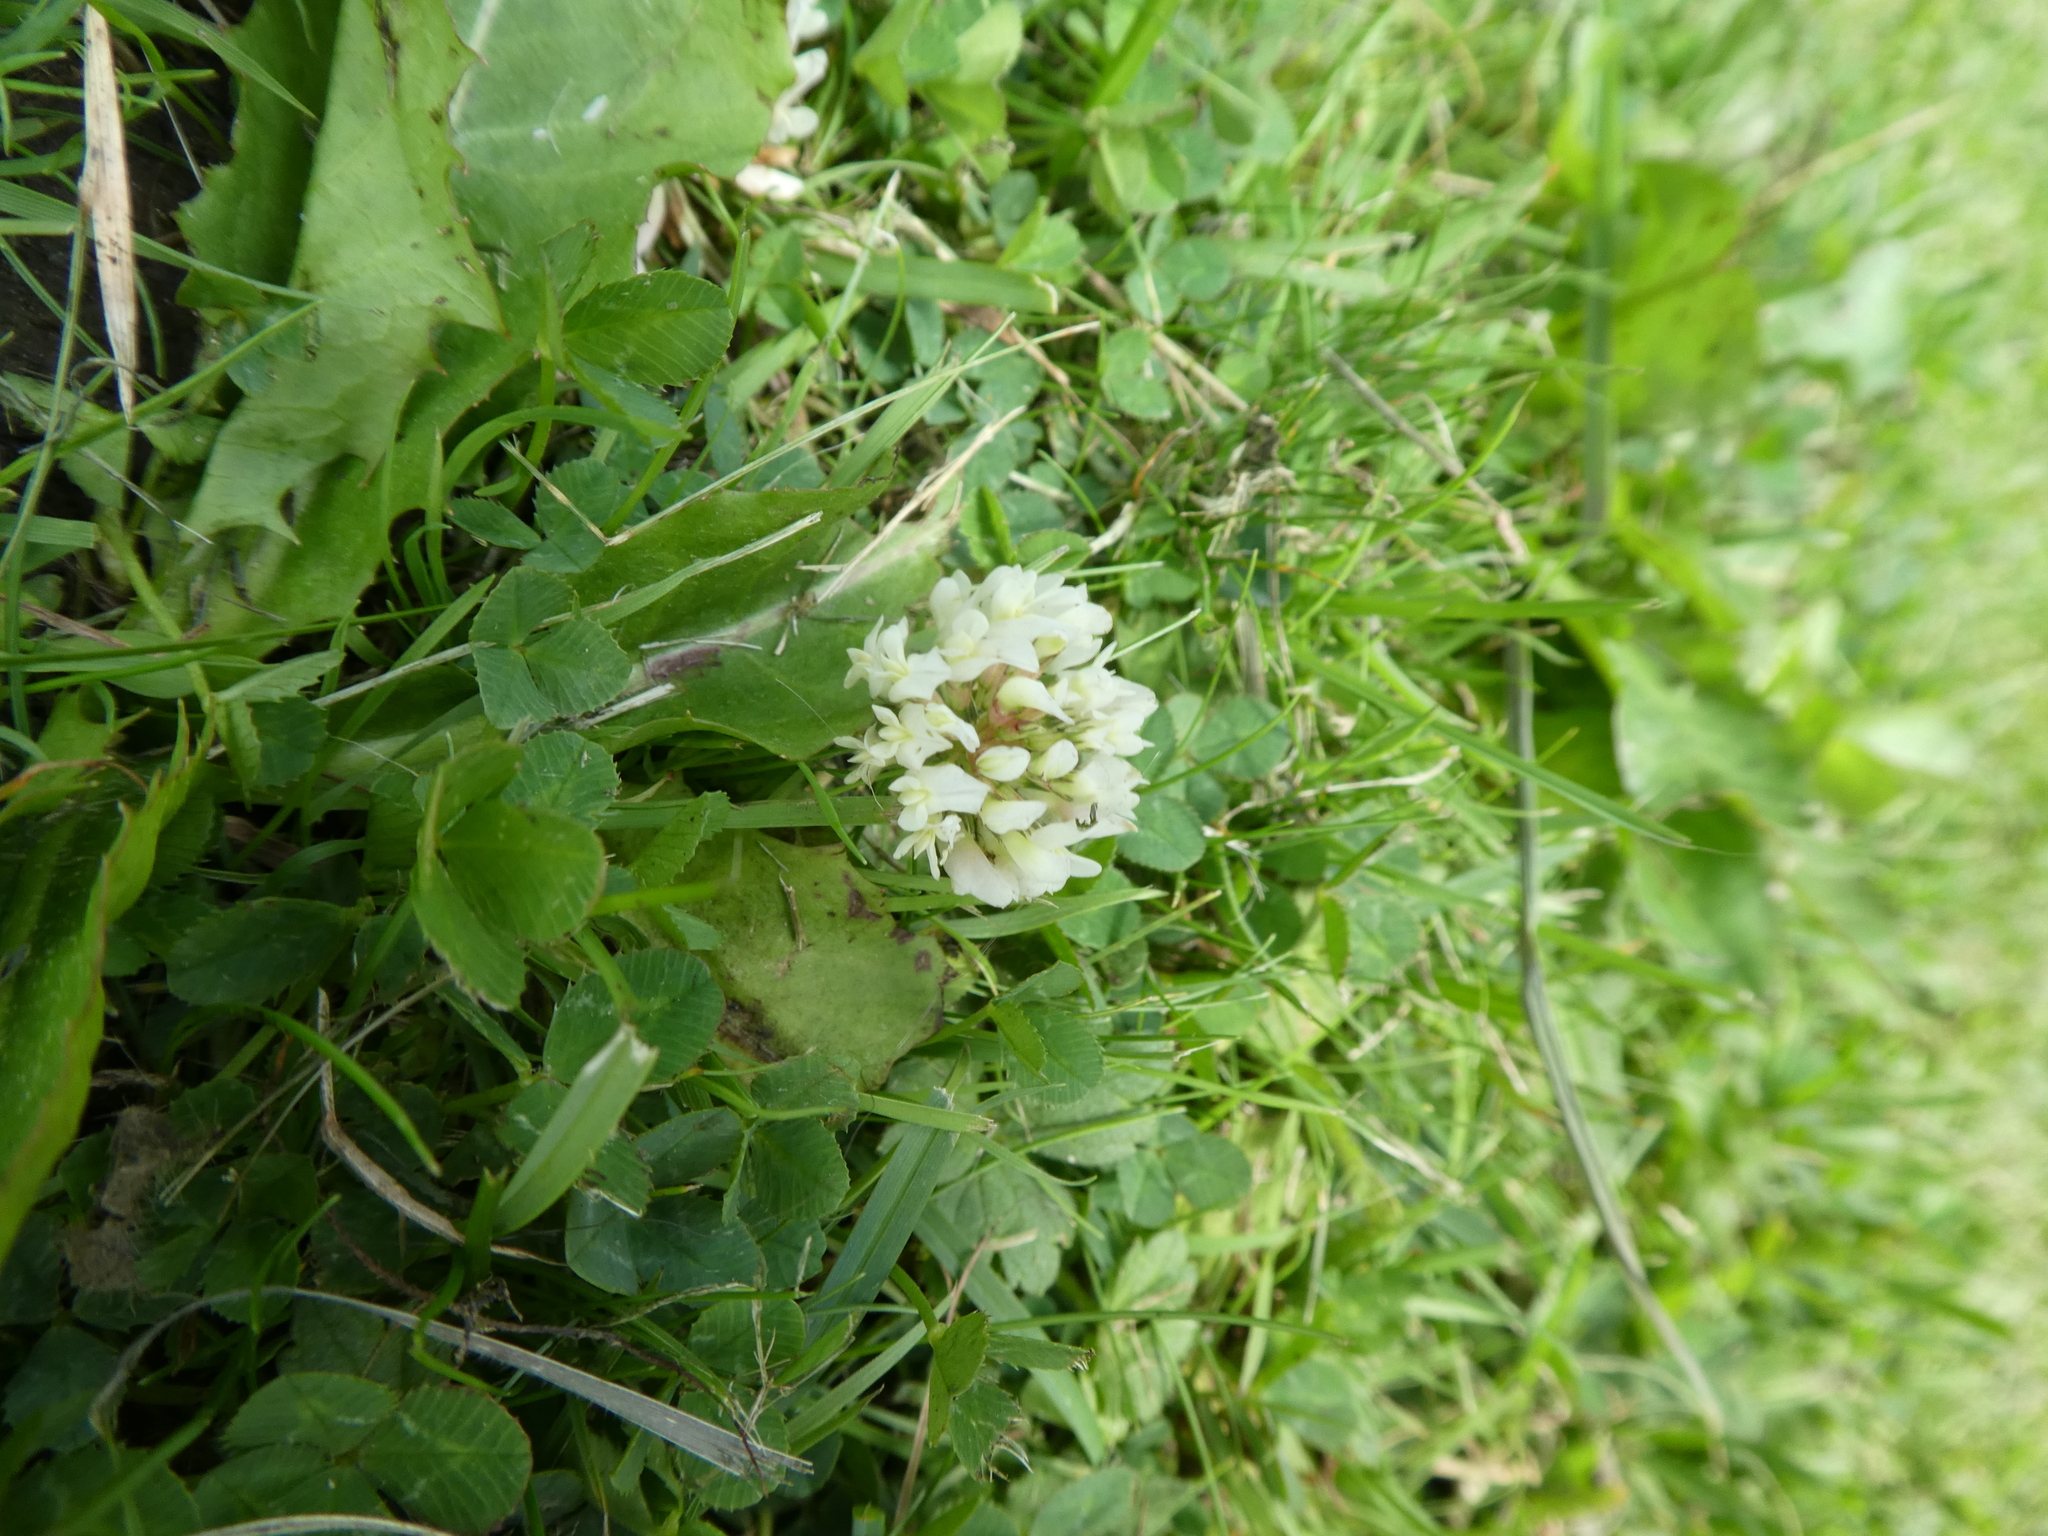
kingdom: Plantae
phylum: Tracheophyta
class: Magnoliopsida
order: Fabales
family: Fabaceae
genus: Trifolium
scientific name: Trifolium repens
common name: White clover
